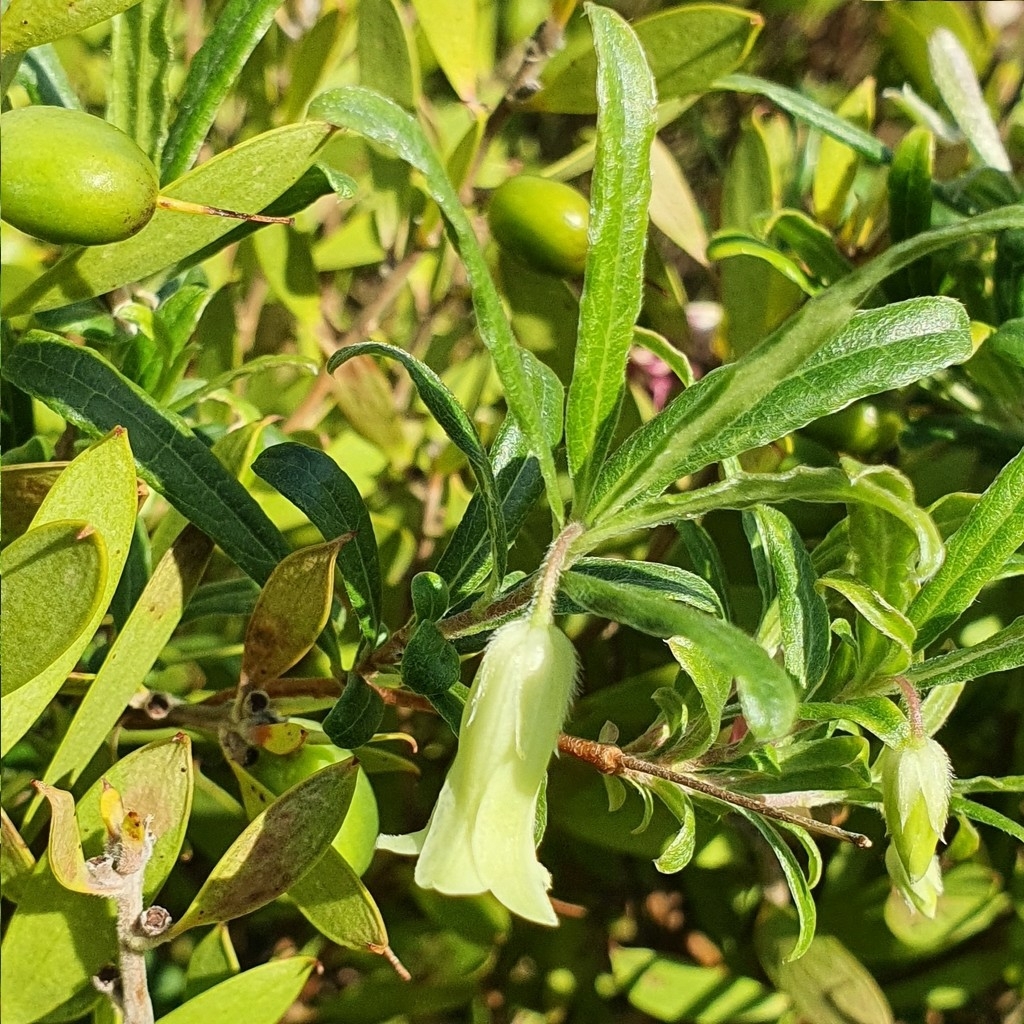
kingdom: Plantae
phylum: Tracheophyta
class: Magnoliopsida
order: Apiales
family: Pittosporaceae
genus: Billardiera
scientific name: Billardiera scandens
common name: Apple-berry
